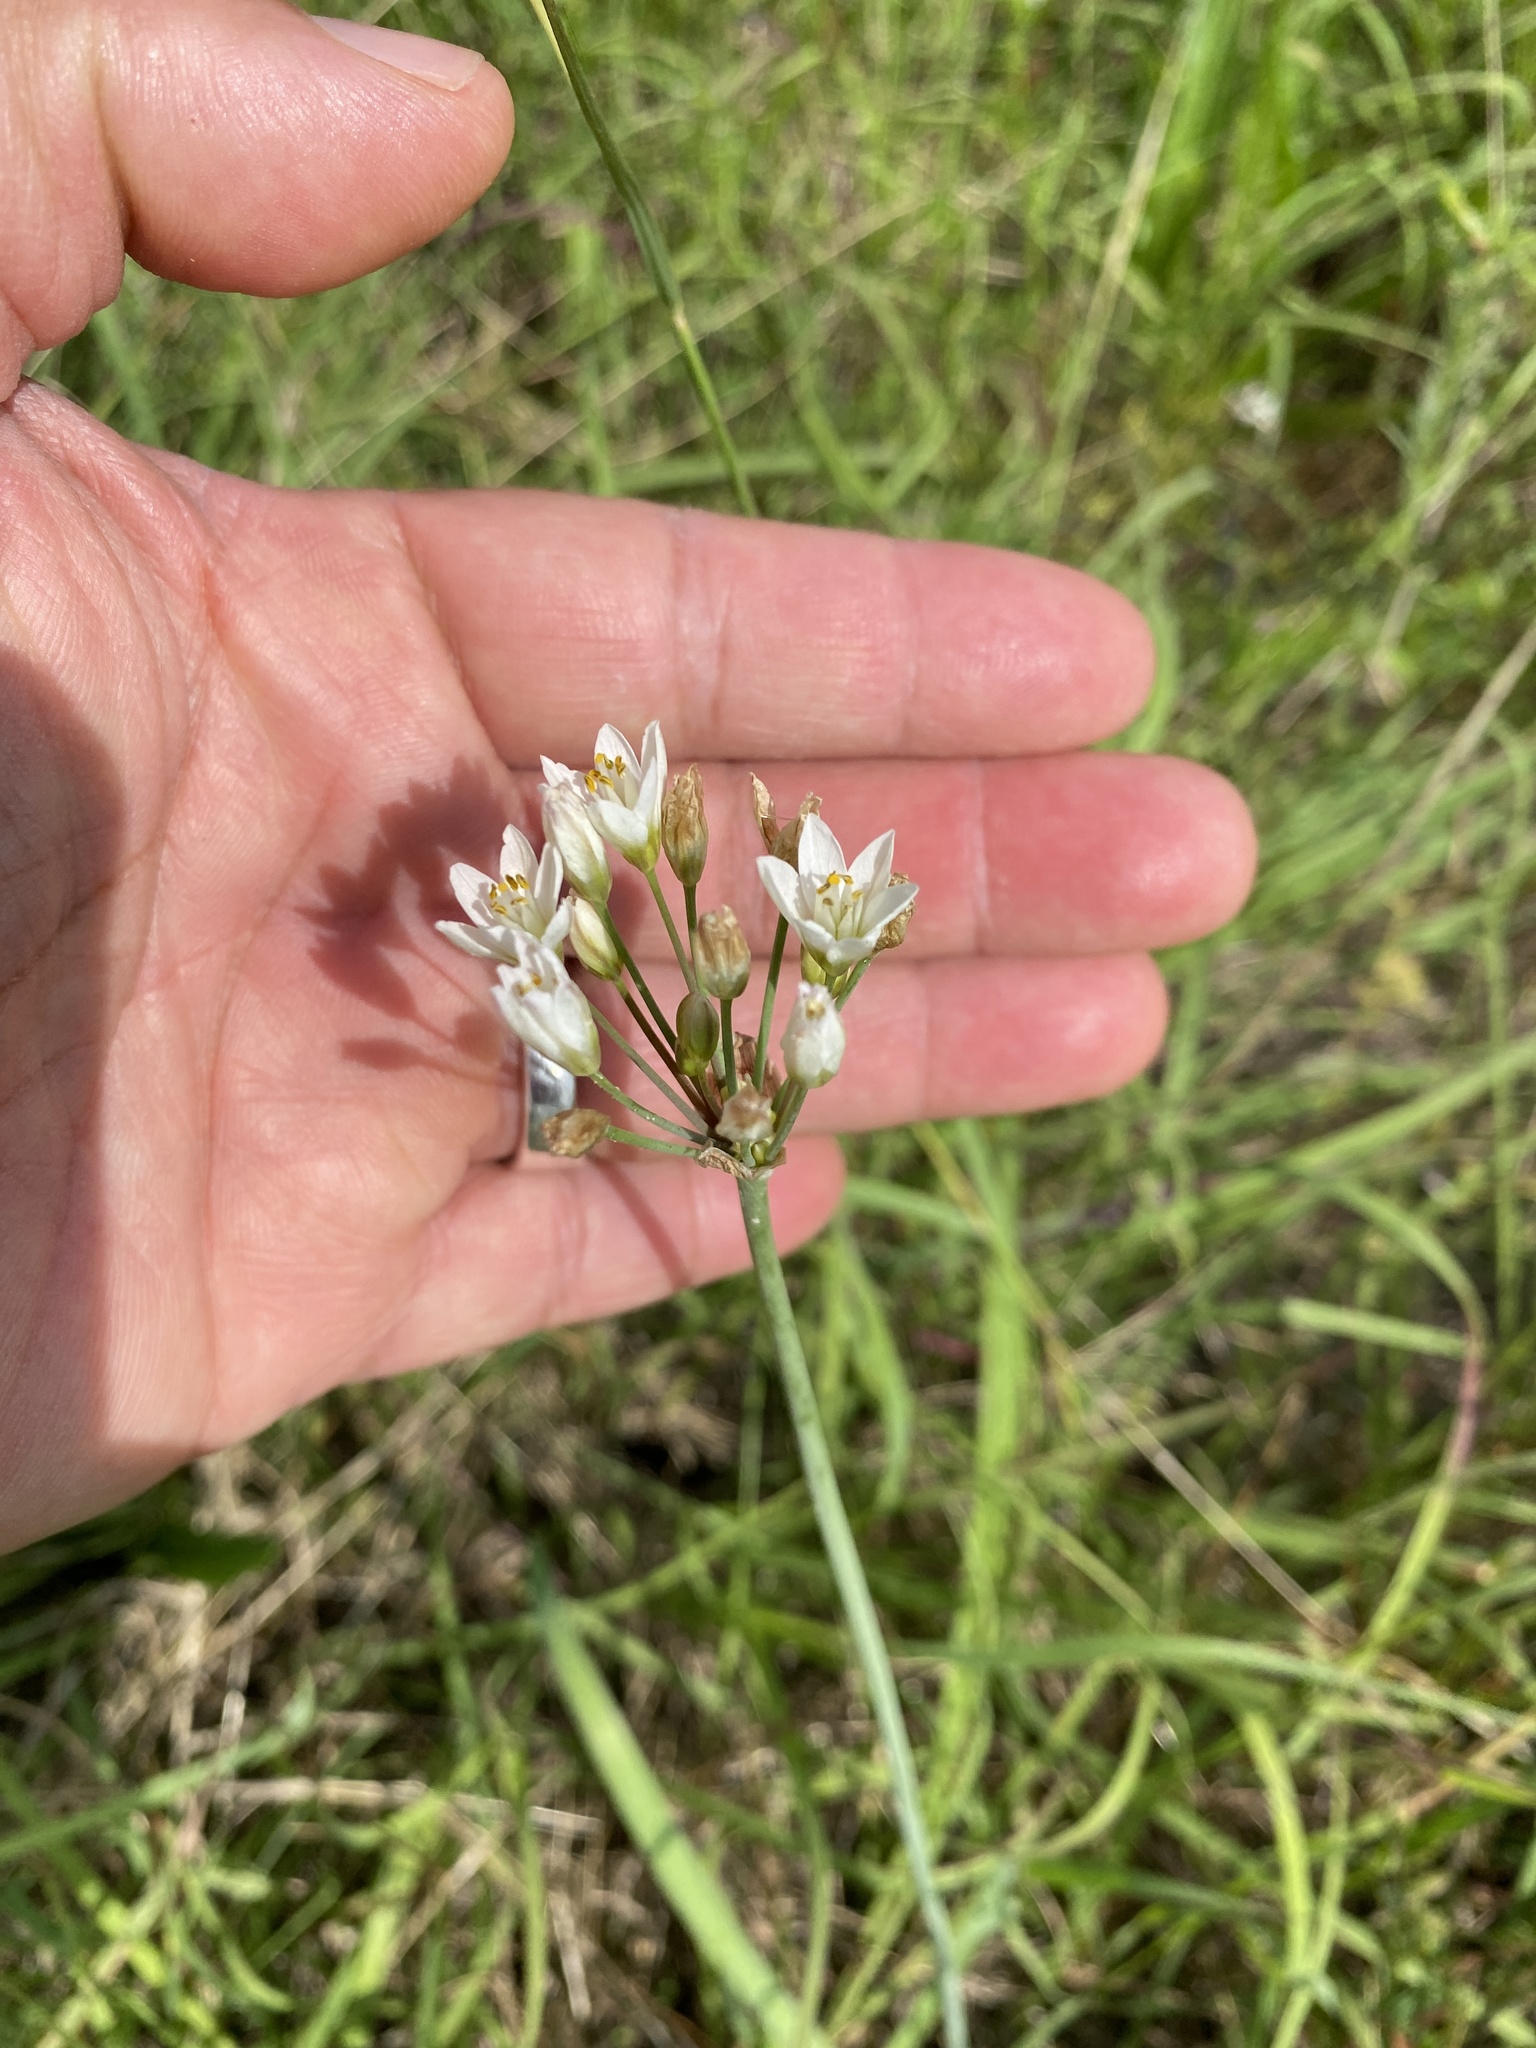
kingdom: Plantae
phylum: Tracheophyta
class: Liliopsida
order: Asparagales
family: Amaryllidaceae
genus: Nothoscordum
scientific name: Nothoscordum gracile
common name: Slender false garlic
